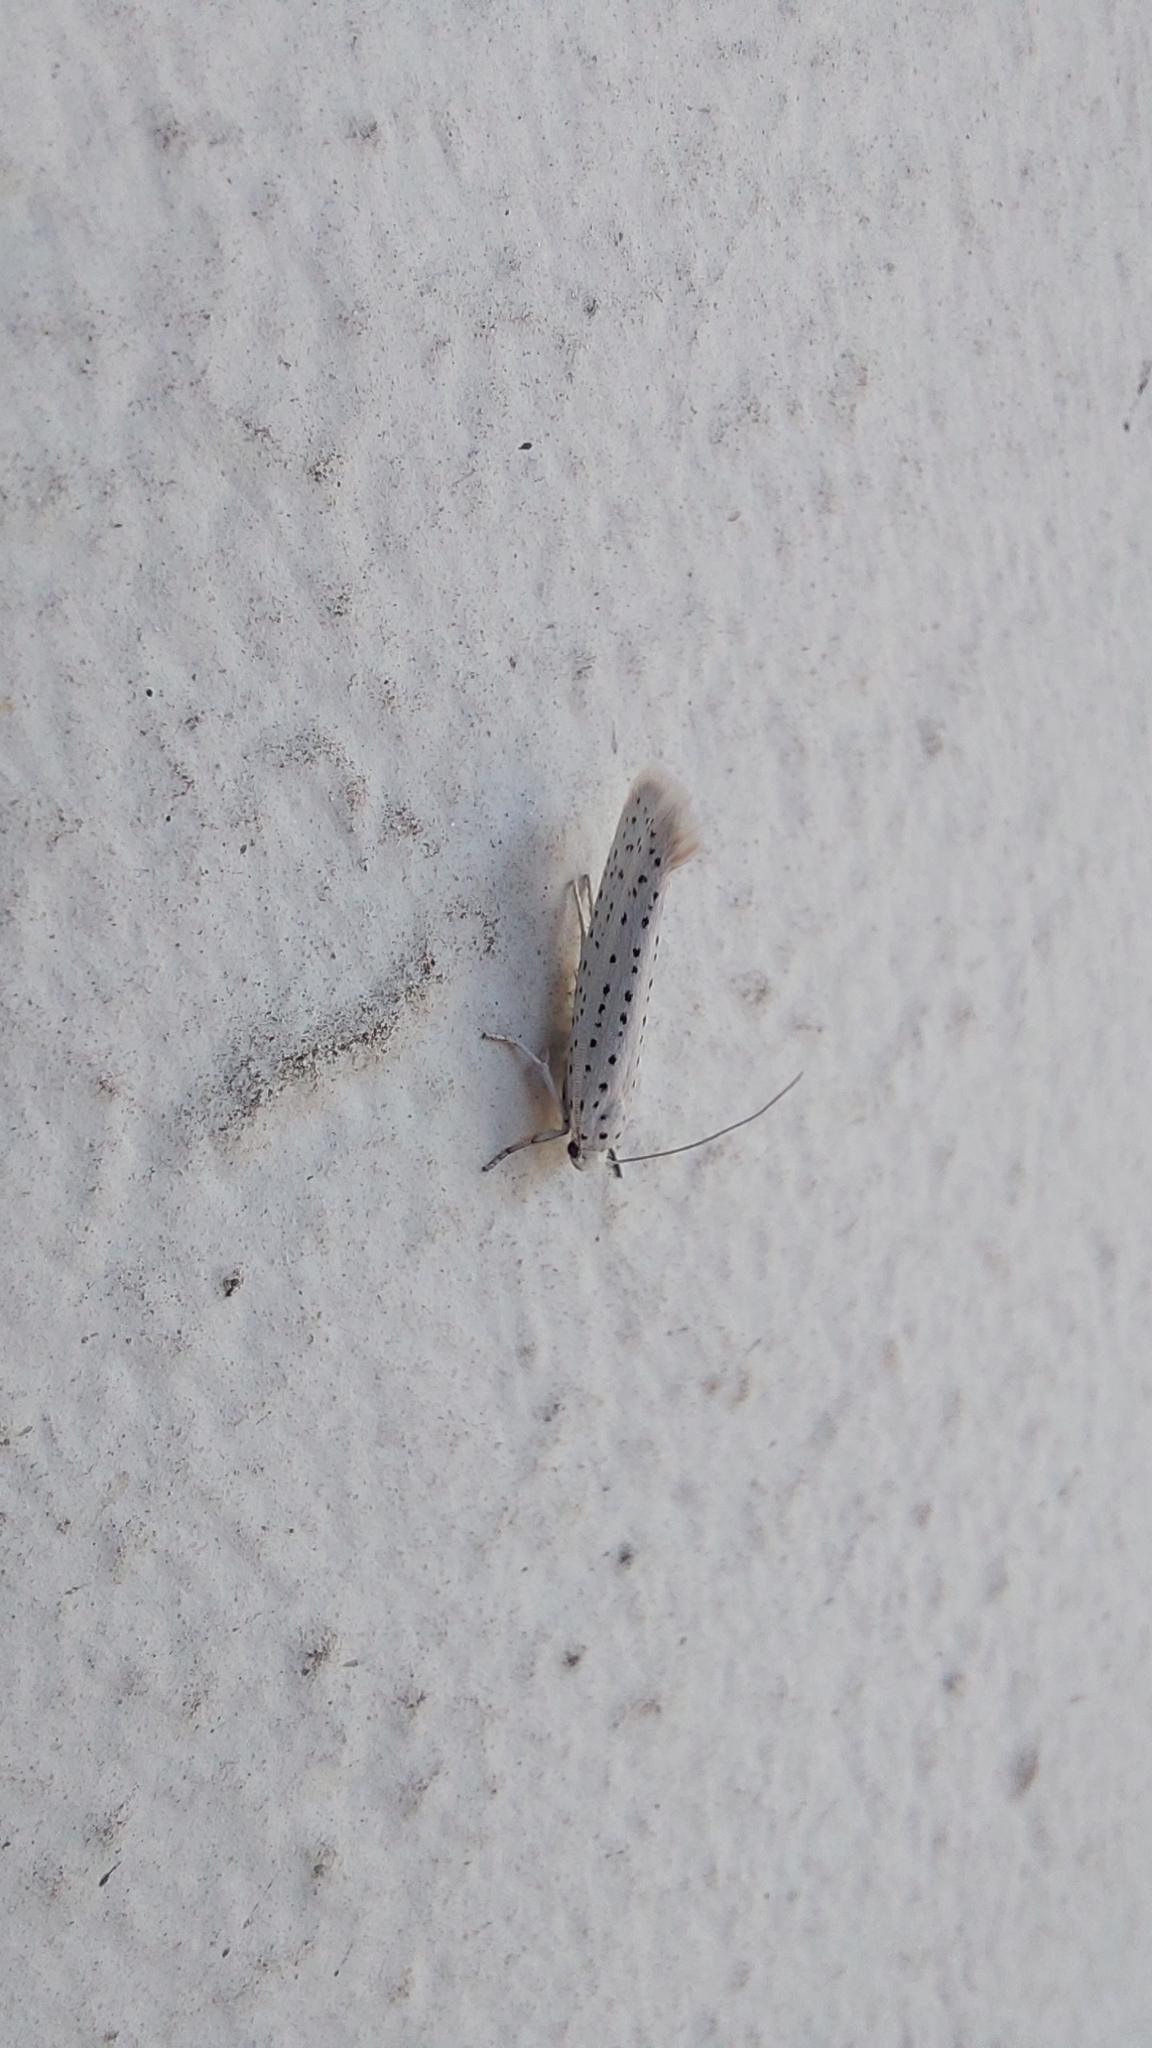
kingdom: Animalia
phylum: Arthropoda
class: Insecta
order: Lepidoptera
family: Yponomeutidae
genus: Yponomeuta
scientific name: Yponomeuta evonymella
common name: Bird-cherry ermine
